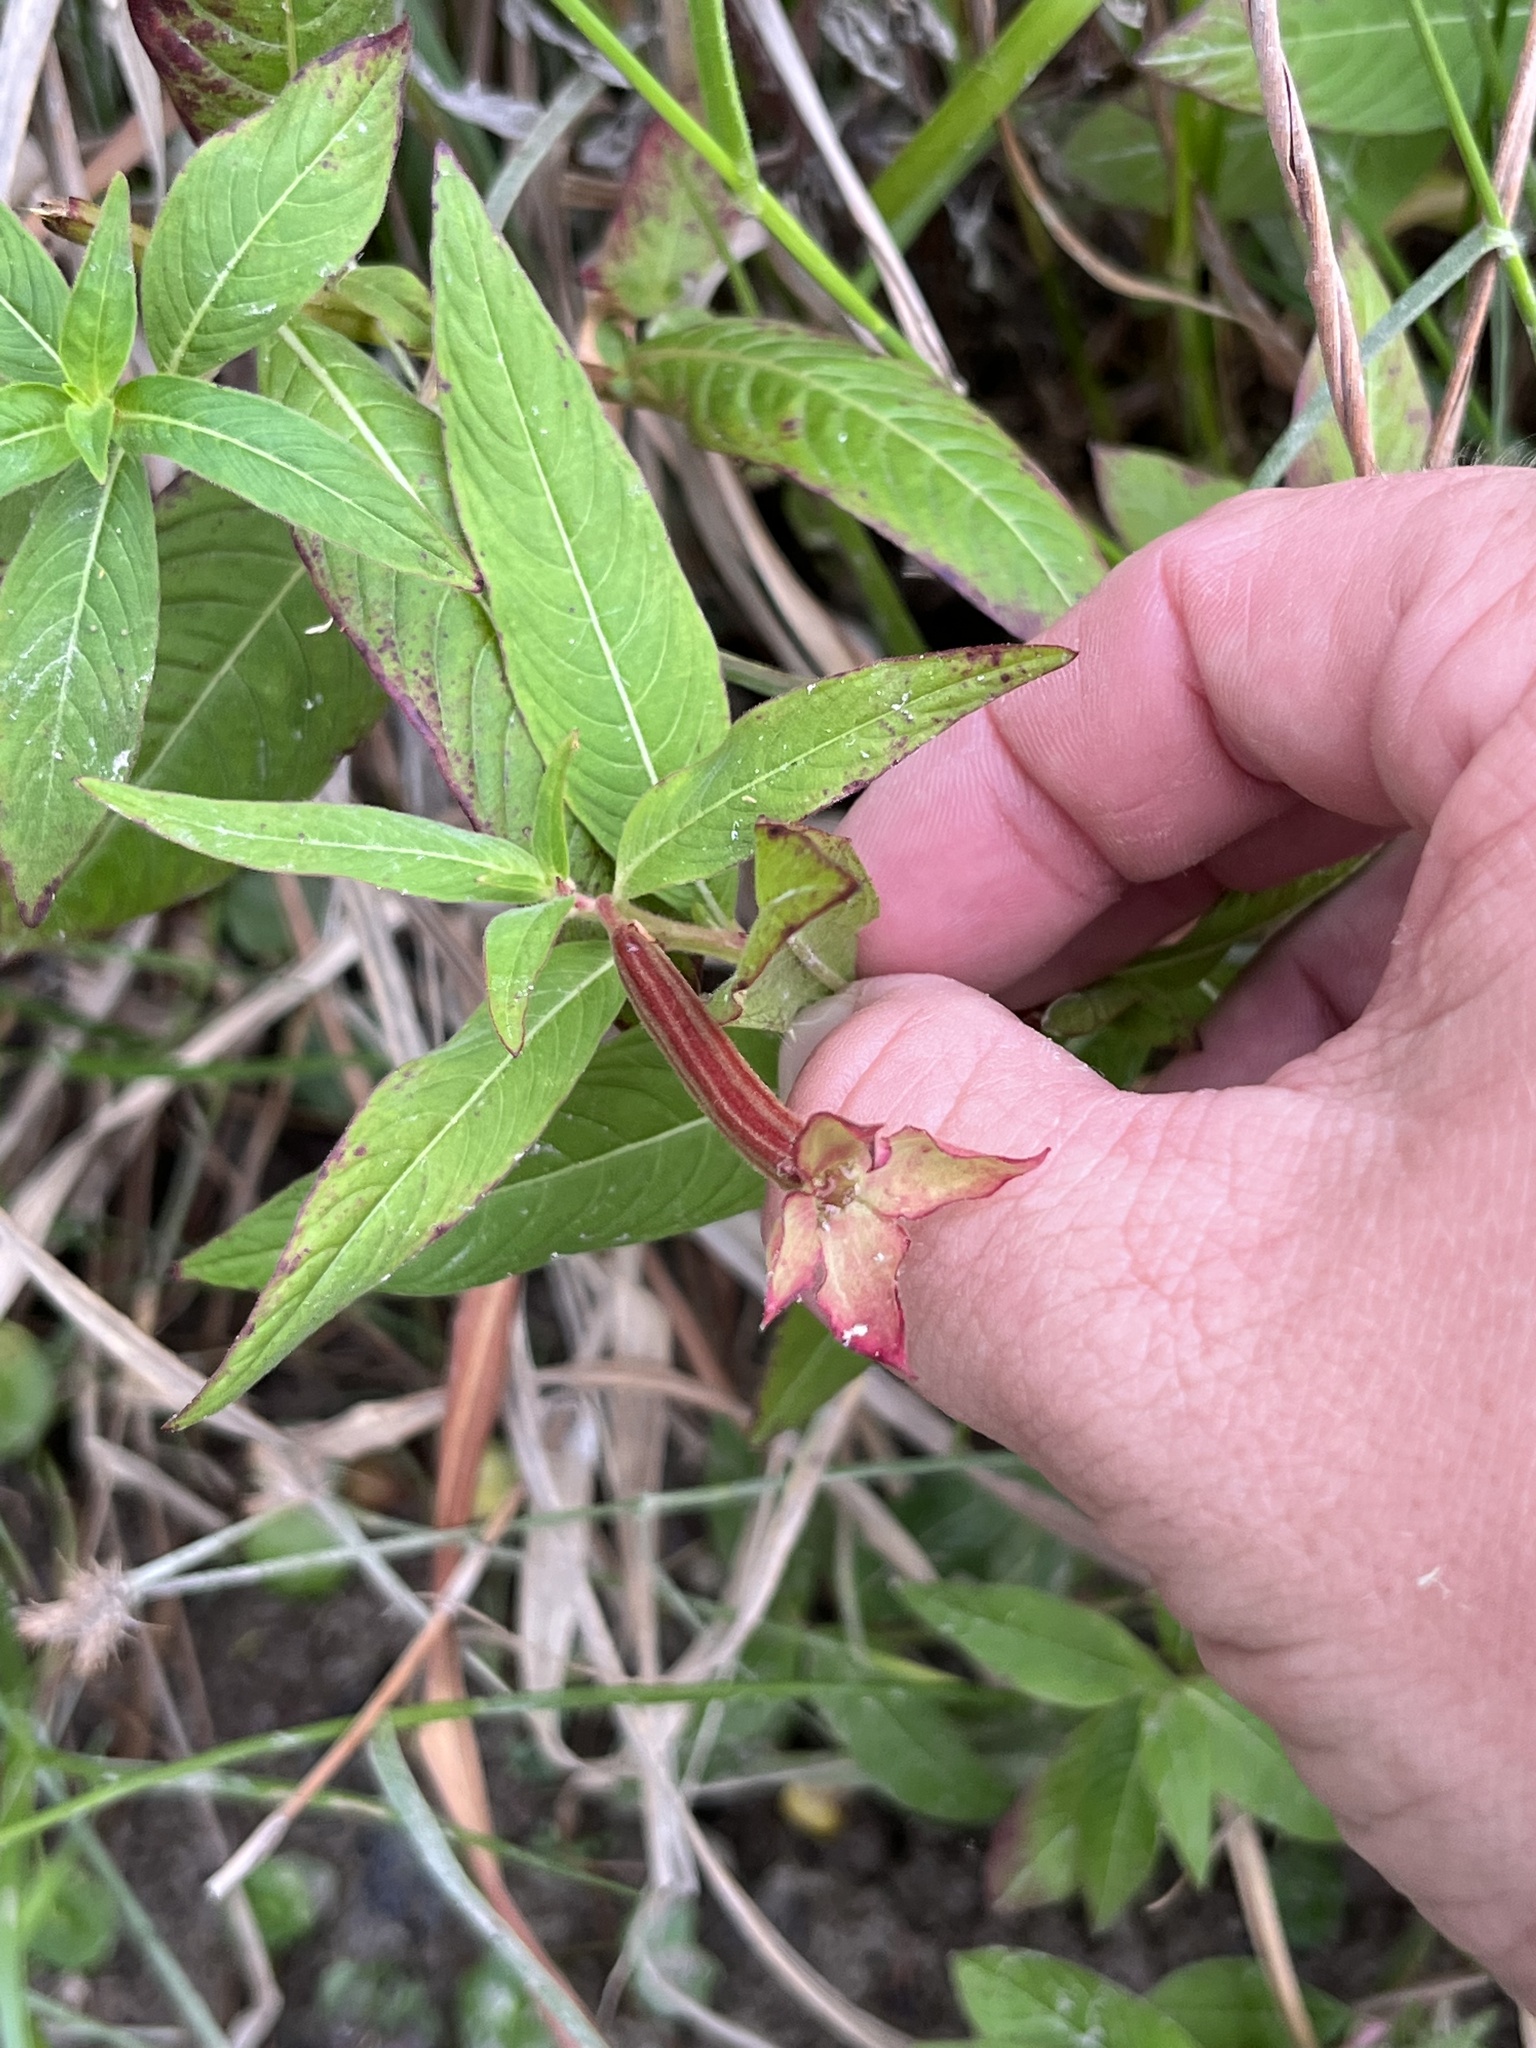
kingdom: Plantae
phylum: Tracheophyta
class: Magnoliopsida
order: Myrtales
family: Onagraceae
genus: Ludwigia
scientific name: Ludwigia octovalvis
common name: Water-primrose
